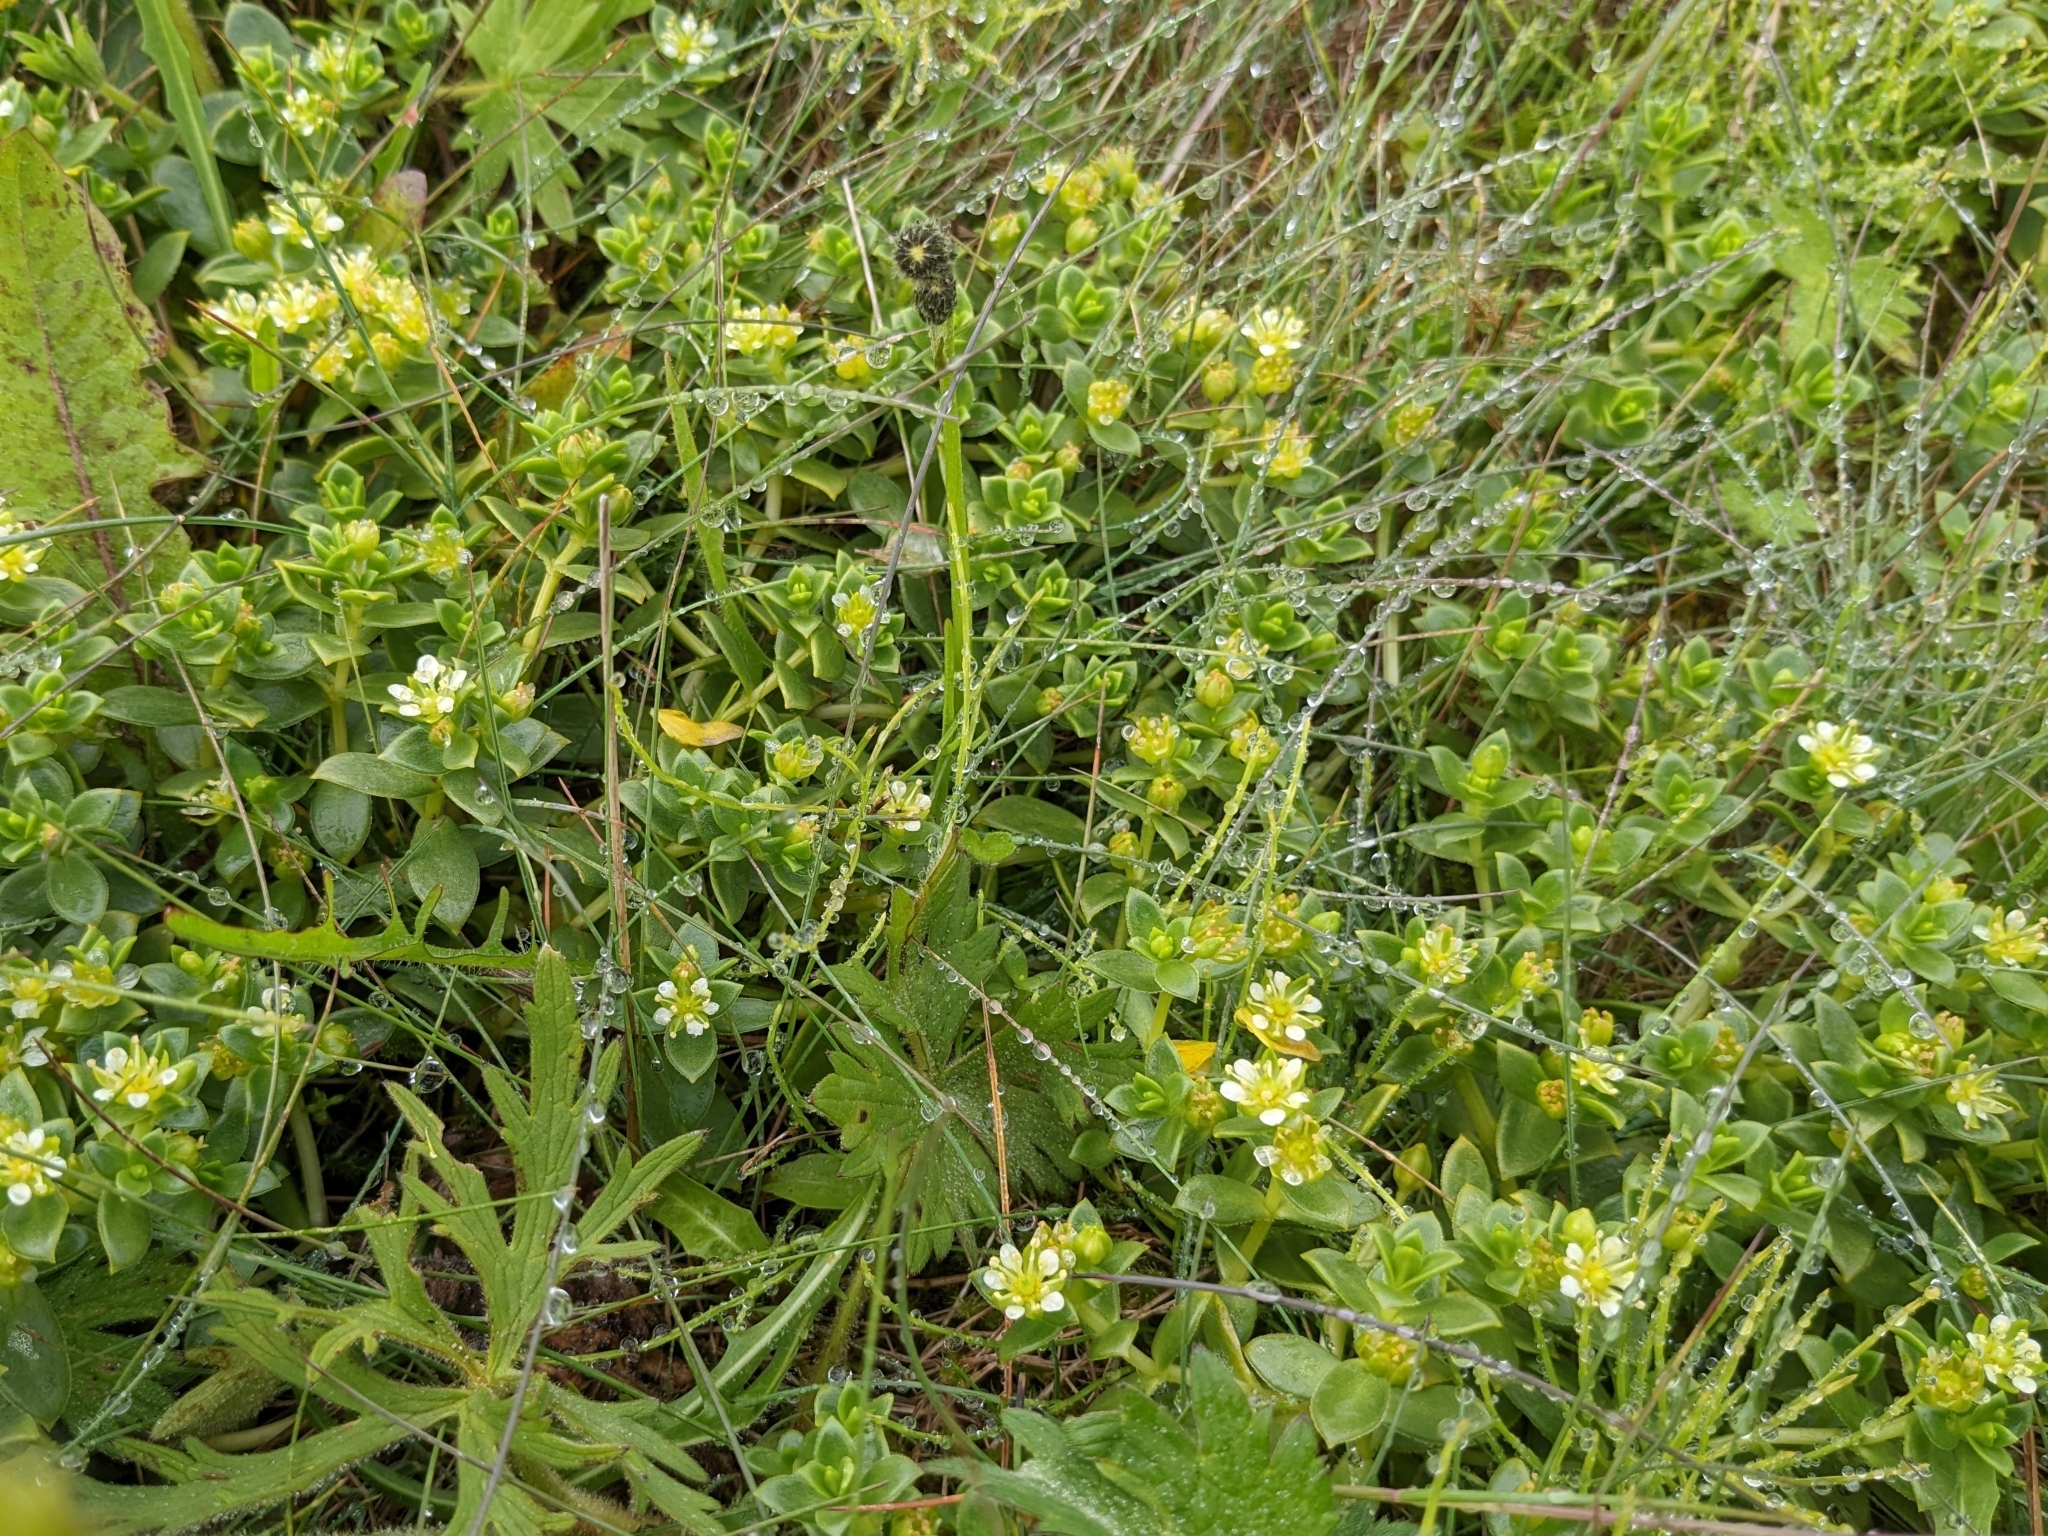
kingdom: Plantae
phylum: Tracheophyta
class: Magnoliopsida
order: Caryophyllales
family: Caryophyllaceae
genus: Honckenya
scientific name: Honckenya peploides
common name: Sea sandwort
